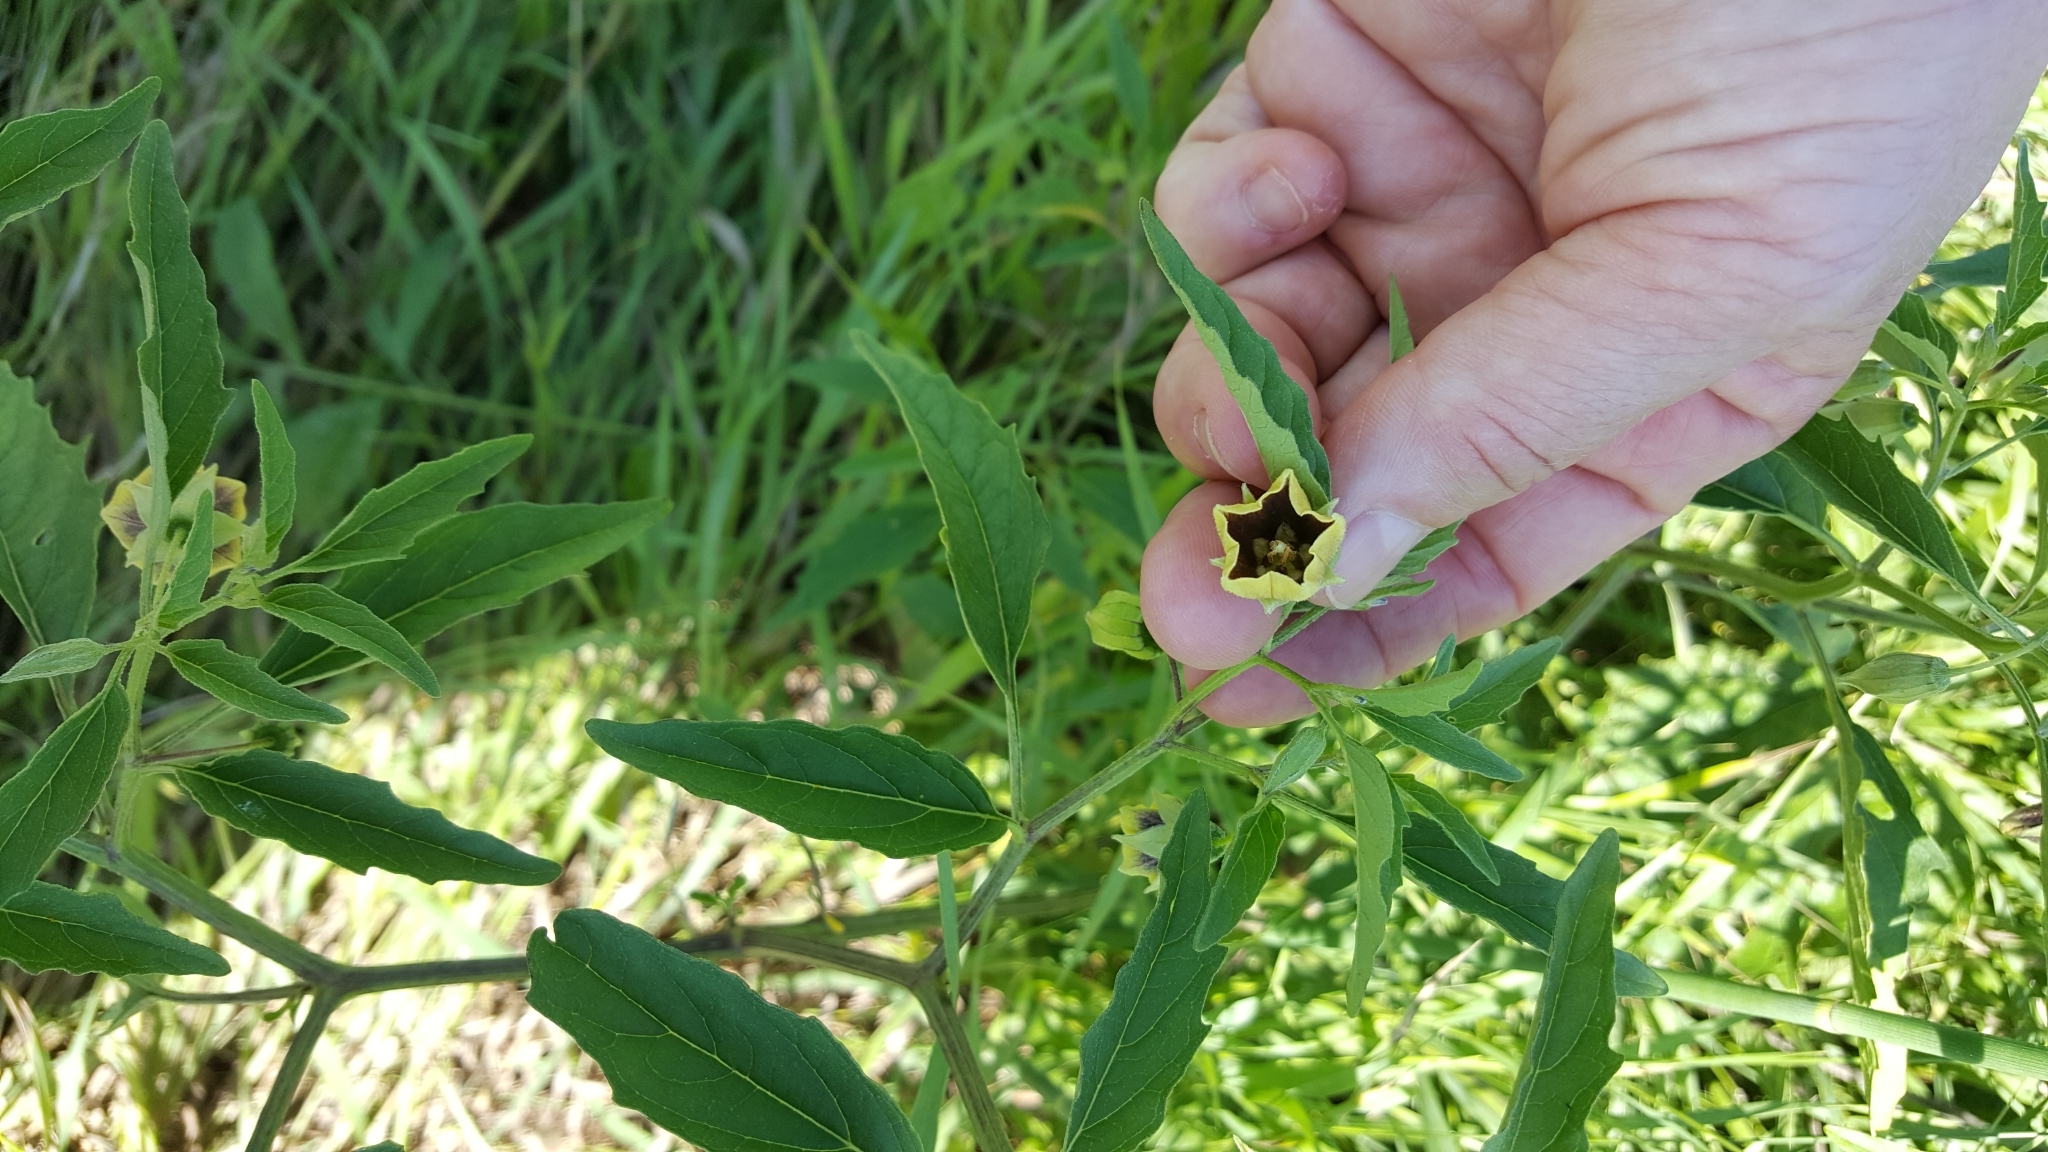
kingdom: Plantae
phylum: Tracheophyta
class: Magnoliopsida
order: Solanales
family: Solanaceae
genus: Physalis
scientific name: Physalis virginiana
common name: Virginia ground-cherry
